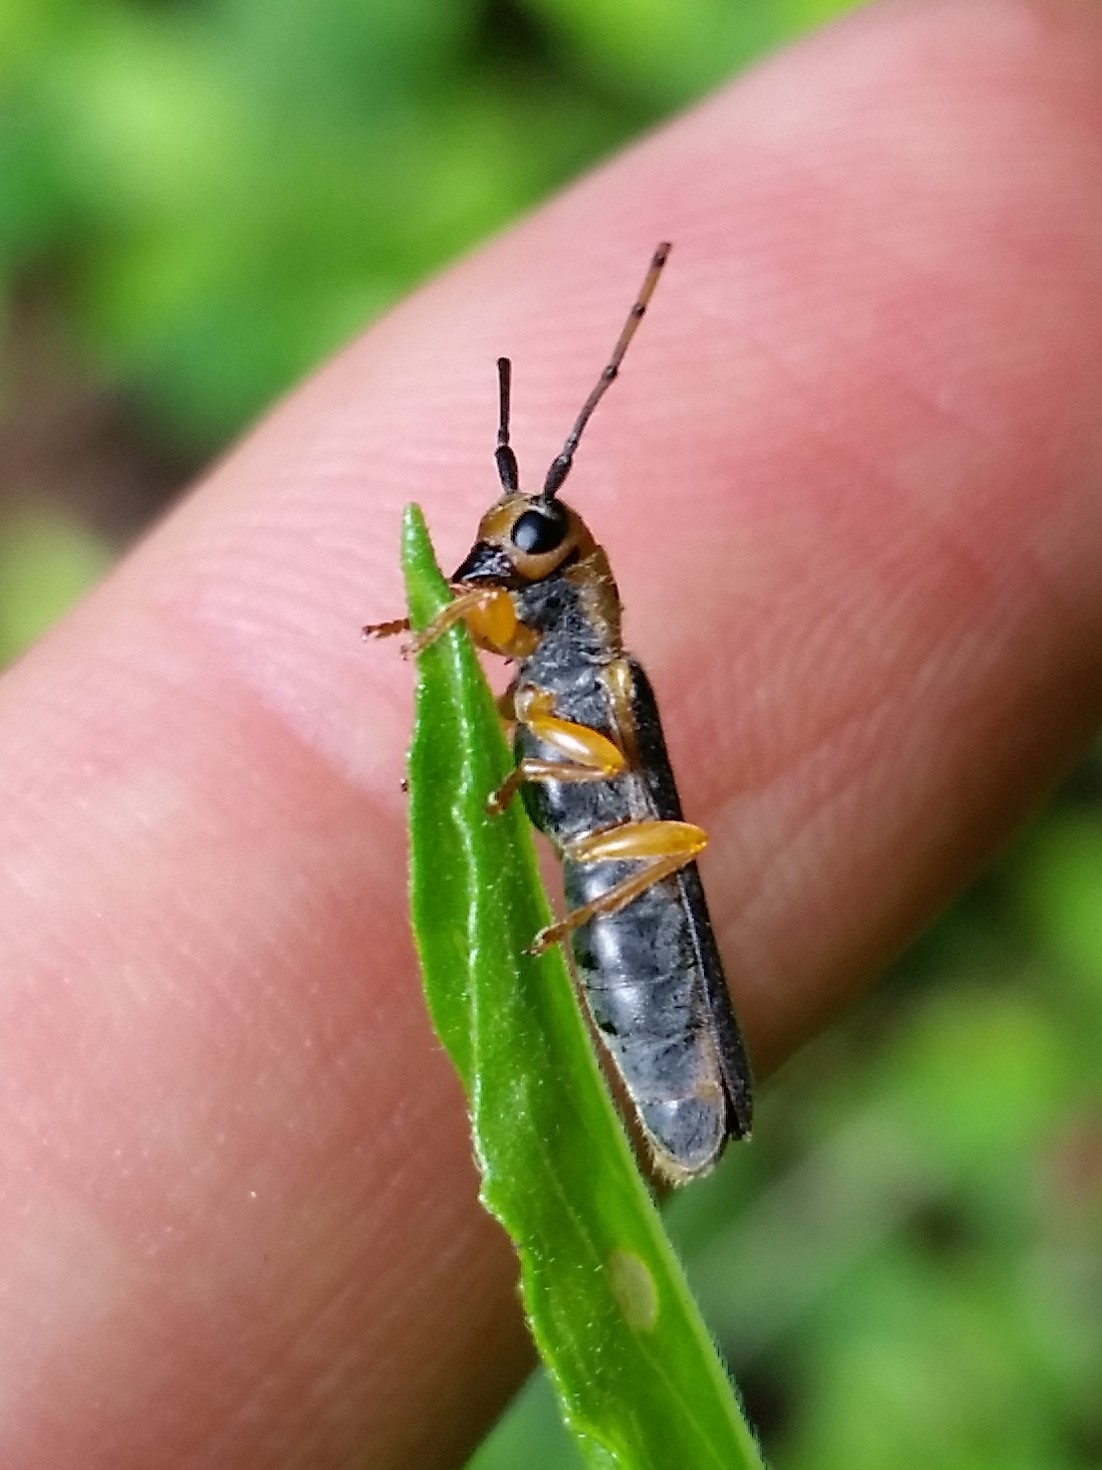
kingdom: Animalia
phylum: Arthropoda
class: Insecta
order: Coleoptera
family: Cerambycidae
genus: Oberea
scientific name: Oberea tripunctata
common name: Dogwood twig borer
